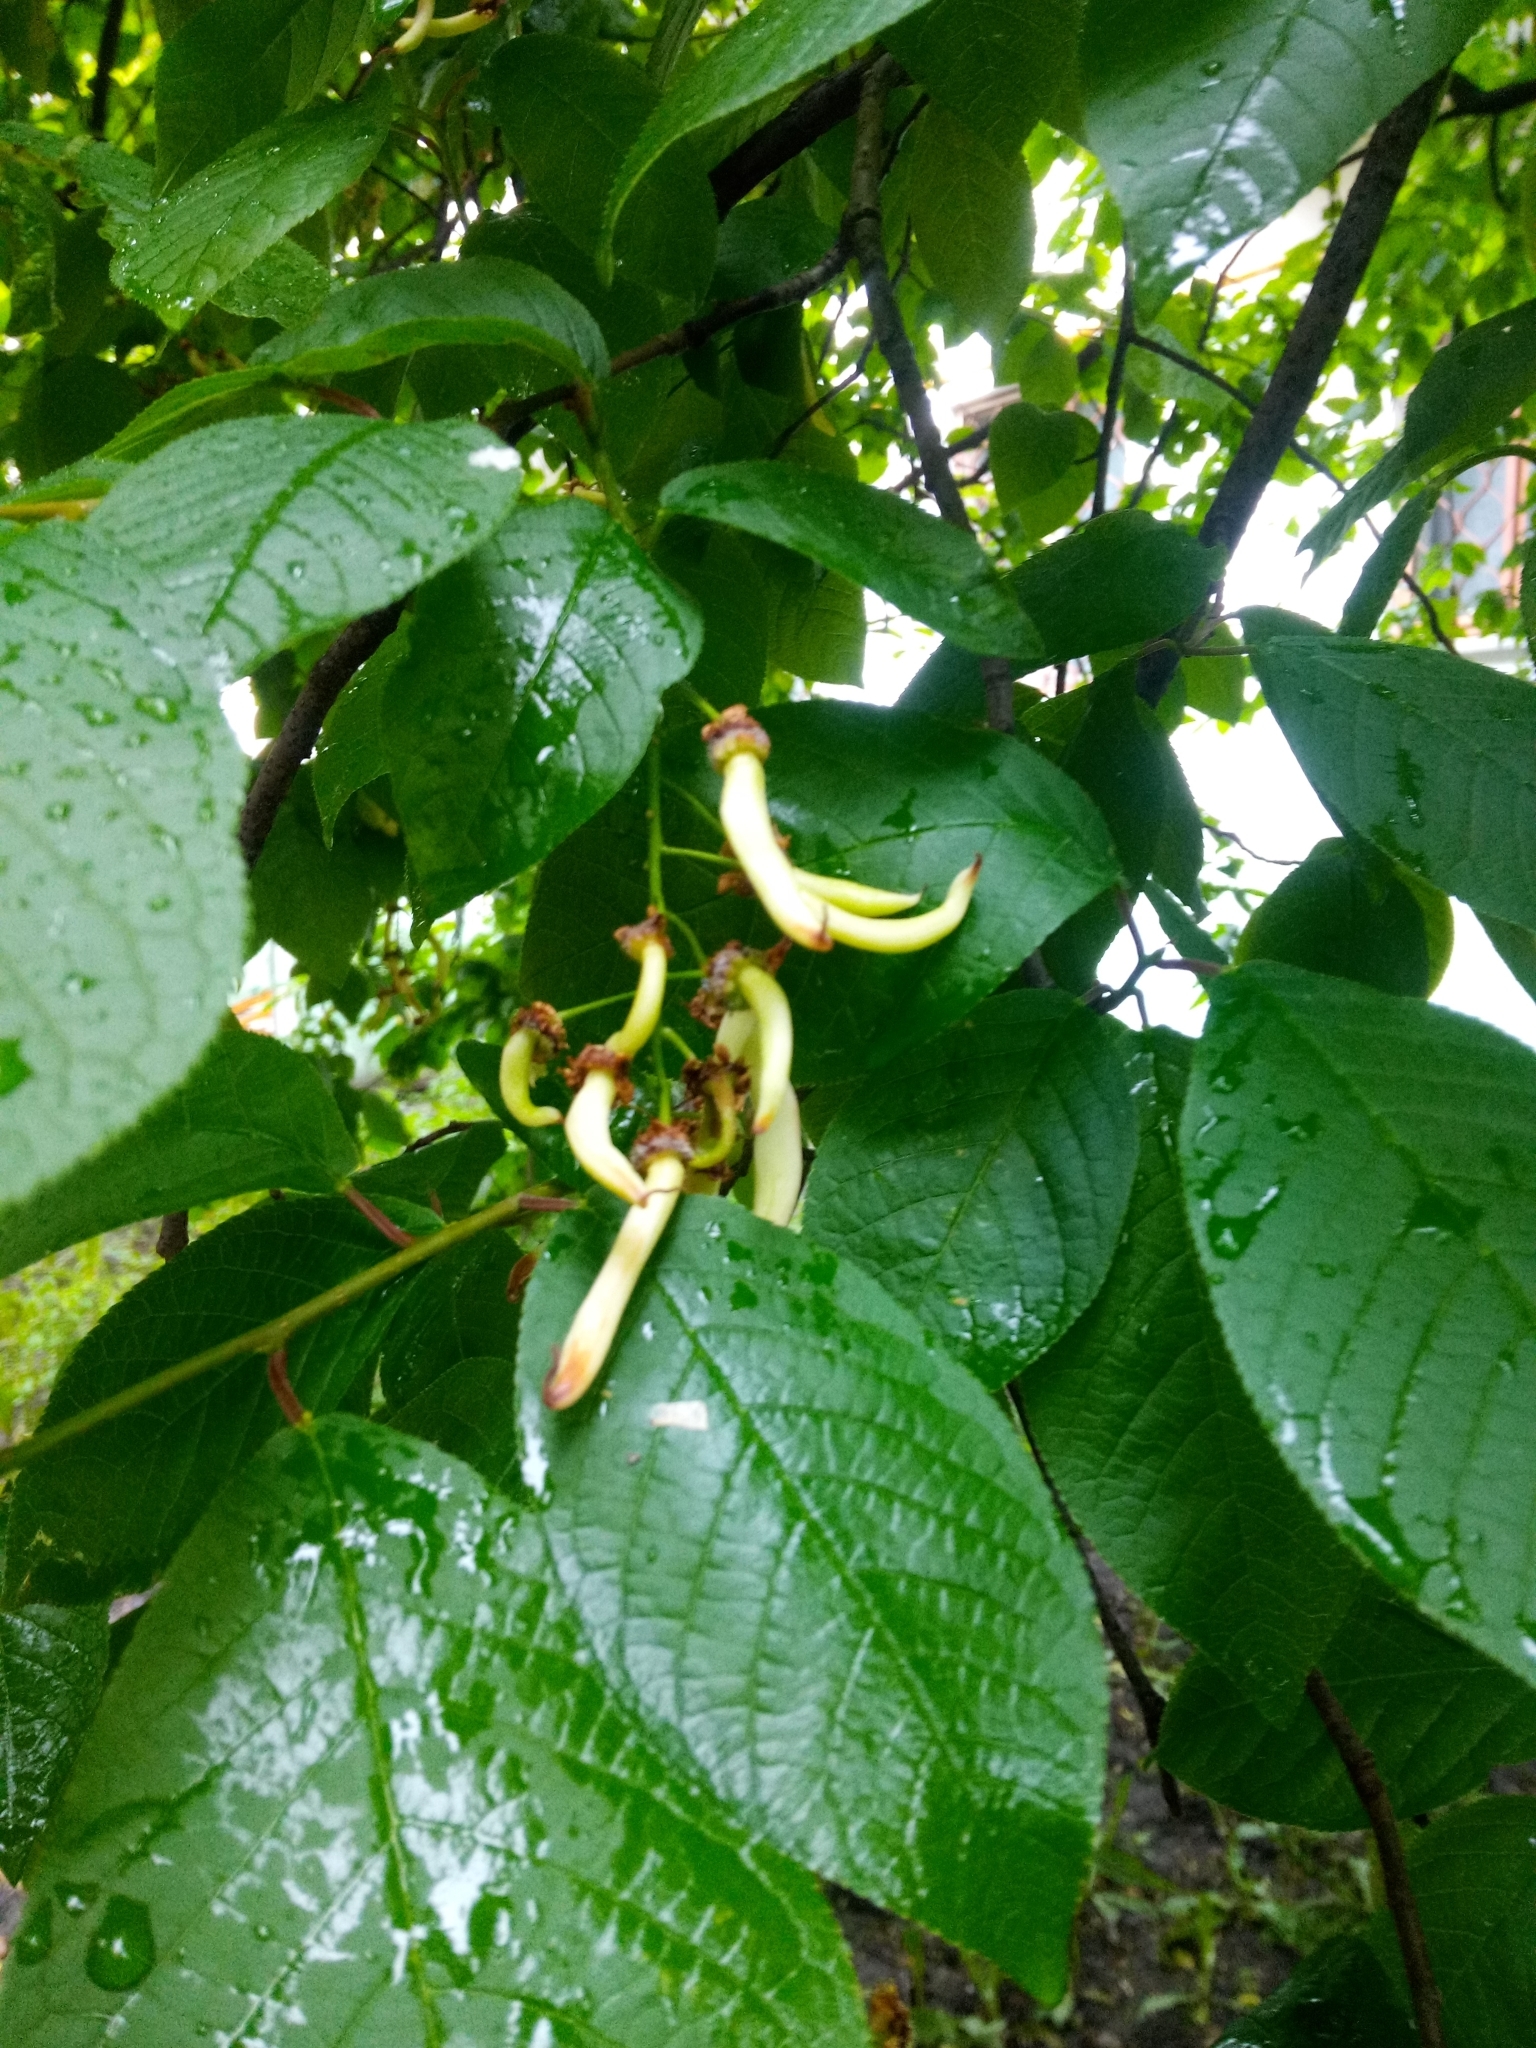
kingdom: Plantae
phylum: Tracheophyta
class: Magnoliopsida
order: Rosales
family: Rosaceae
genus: Prunus
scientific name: Prunus padus
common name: Bird cherry
